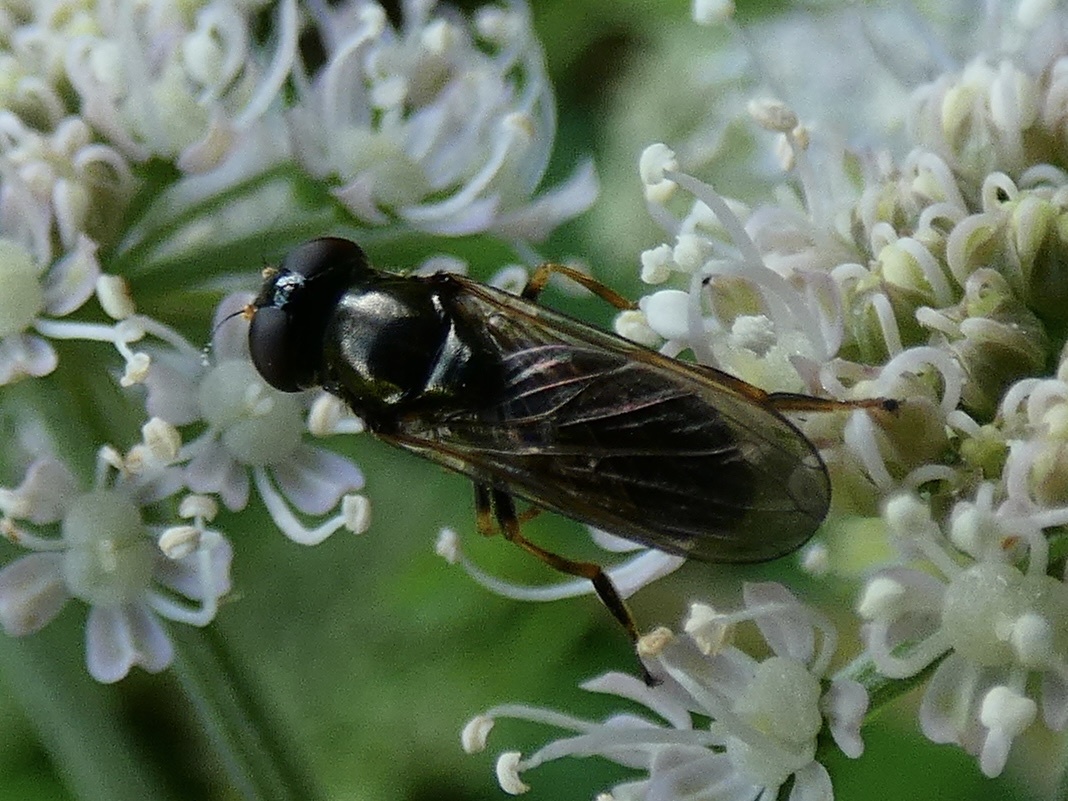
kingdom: Animalia
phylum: Arthropoda
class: Insecta
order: Diptera
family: Syrphidae
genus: Cheilosia
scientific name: Cheilosia pagana
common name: Hover fly
